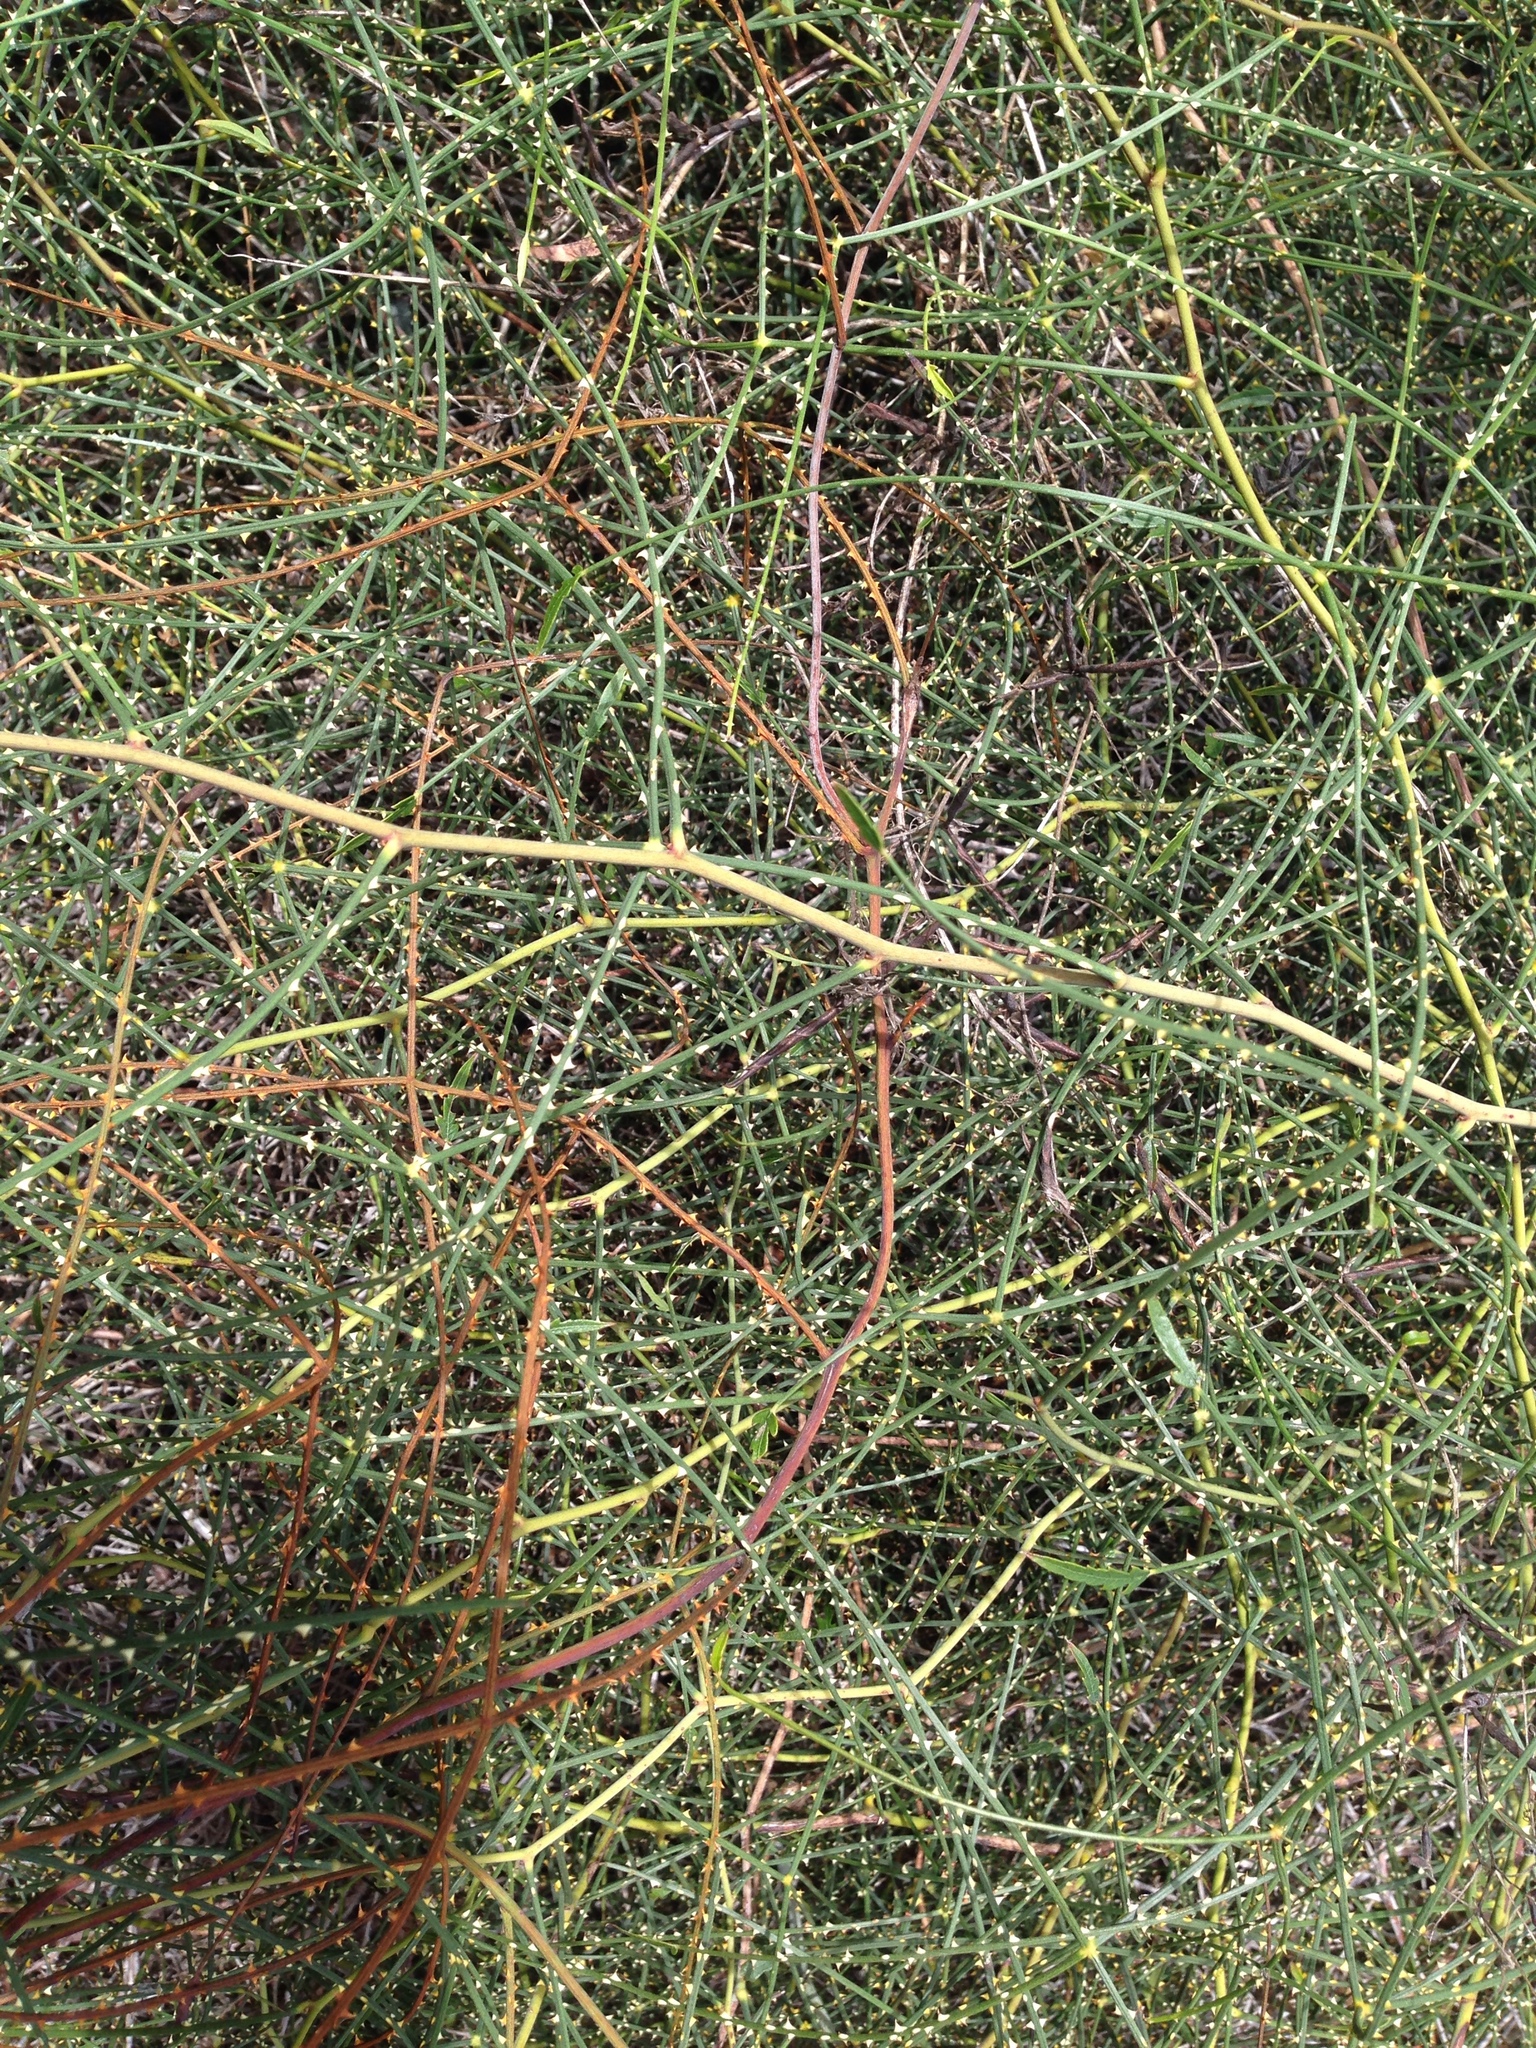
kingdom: Plantae
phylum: Tracheophyta
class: Magnoliopsida
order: Rosales
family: Rosaceae
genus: Rubus
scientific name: Rubus squarrosus
